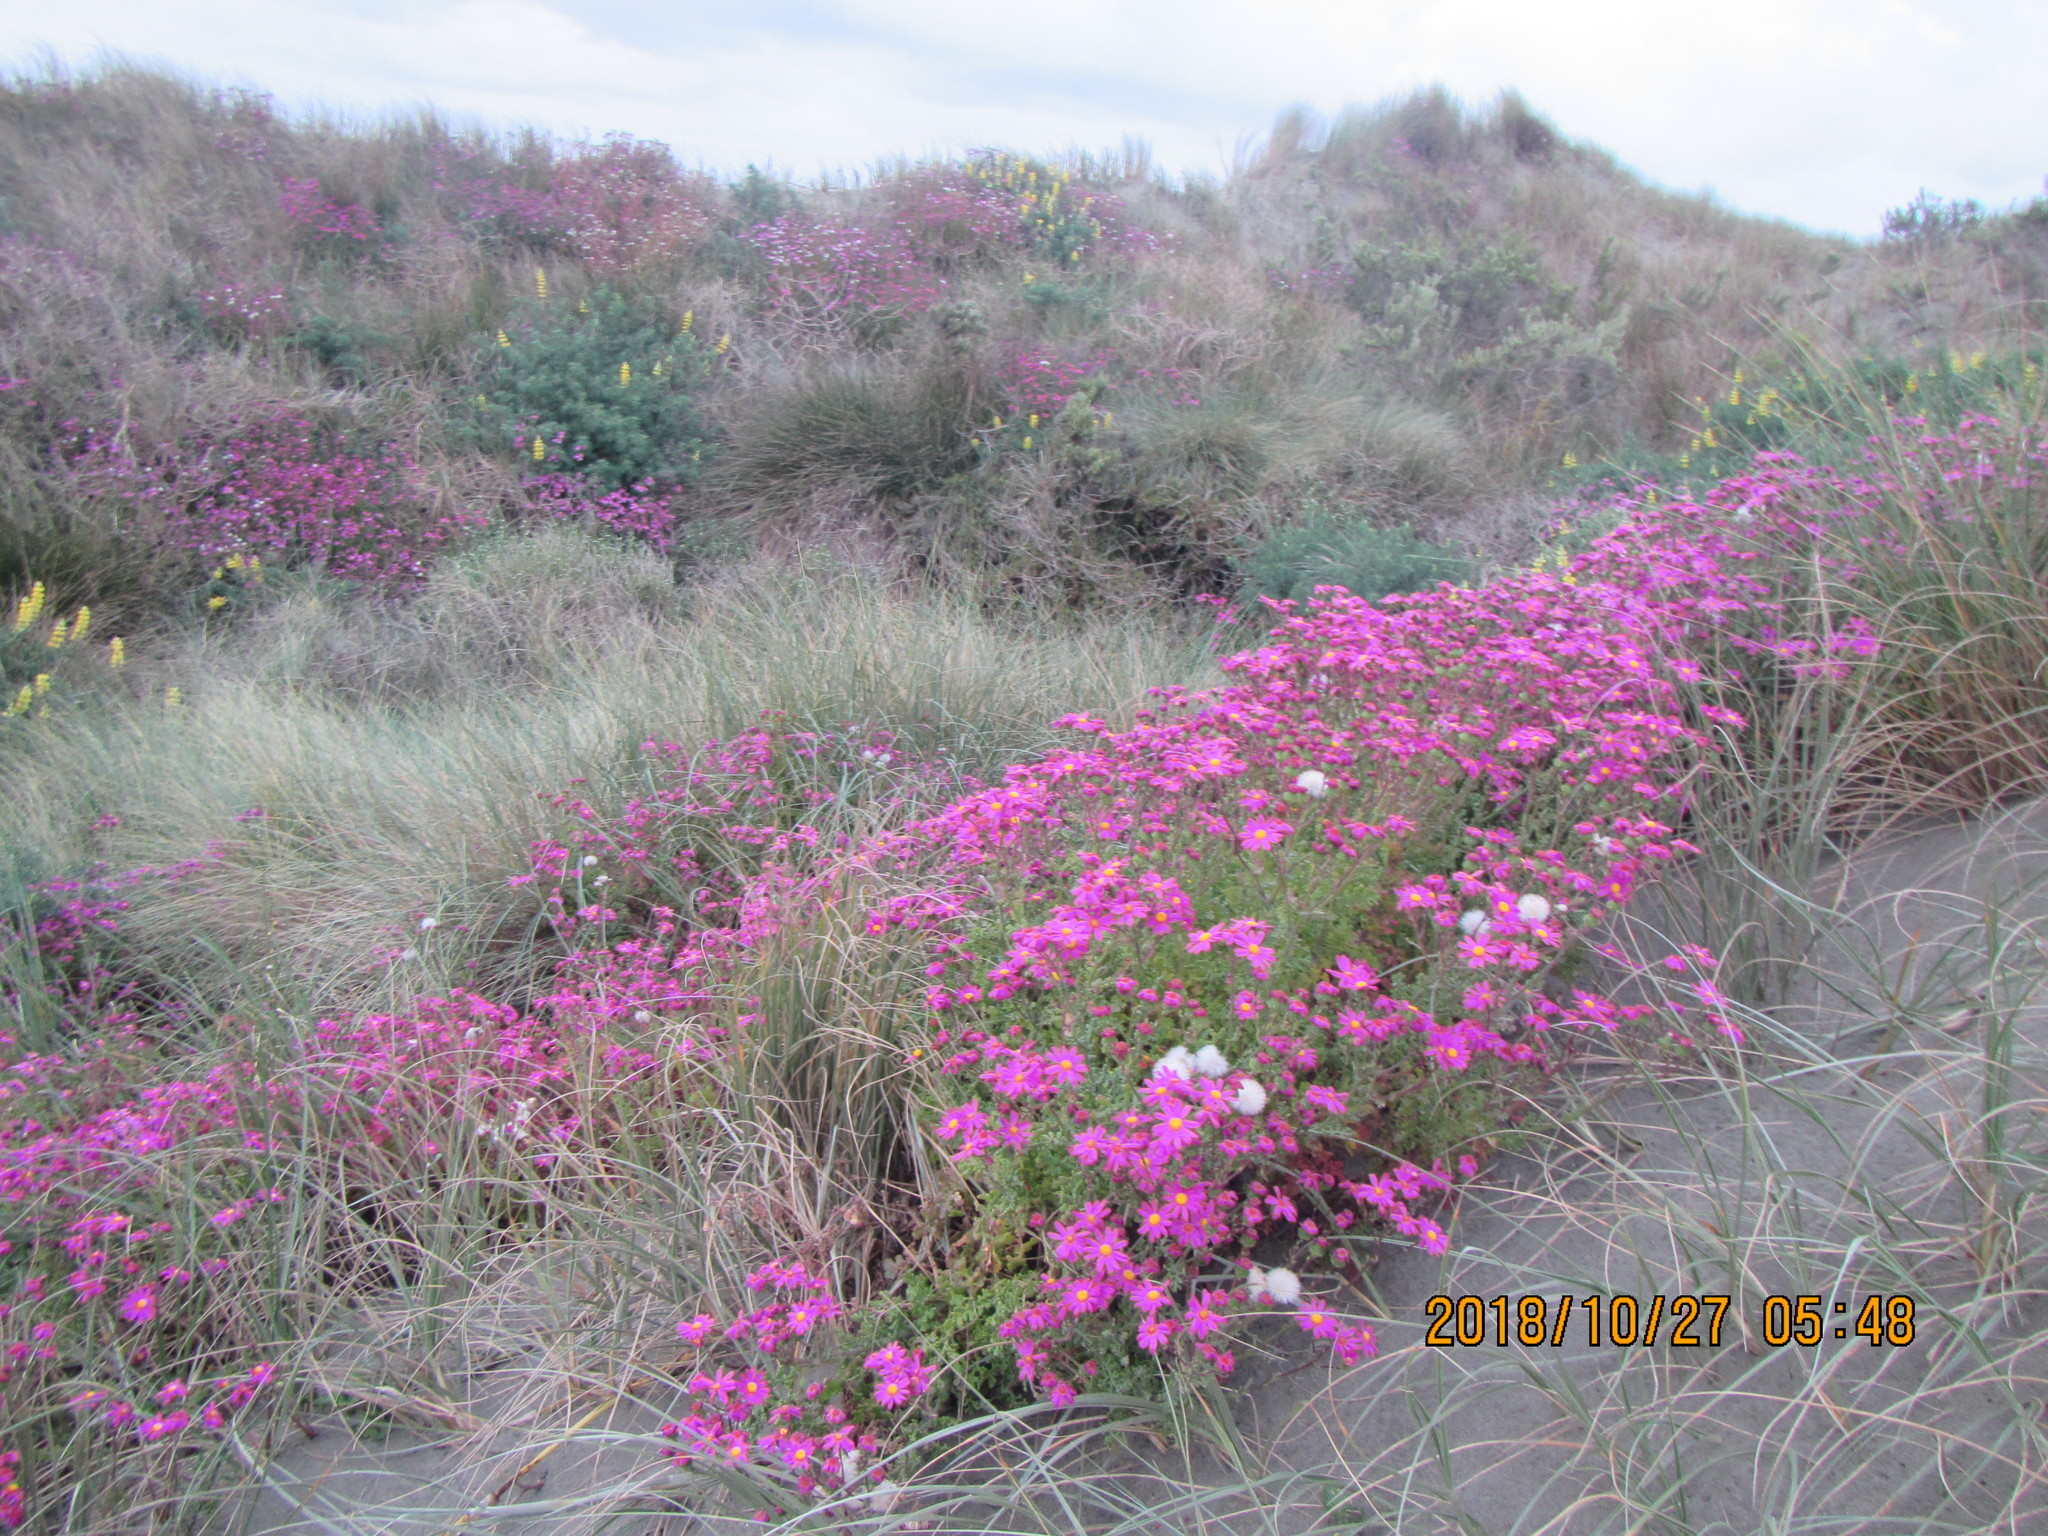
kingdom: Plantae
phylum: Tracheophyta
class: Magnoliopsida
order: Asterales
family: Asteraceae
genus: Senecio
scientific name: Senecio elegans
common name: Purple groundsel
